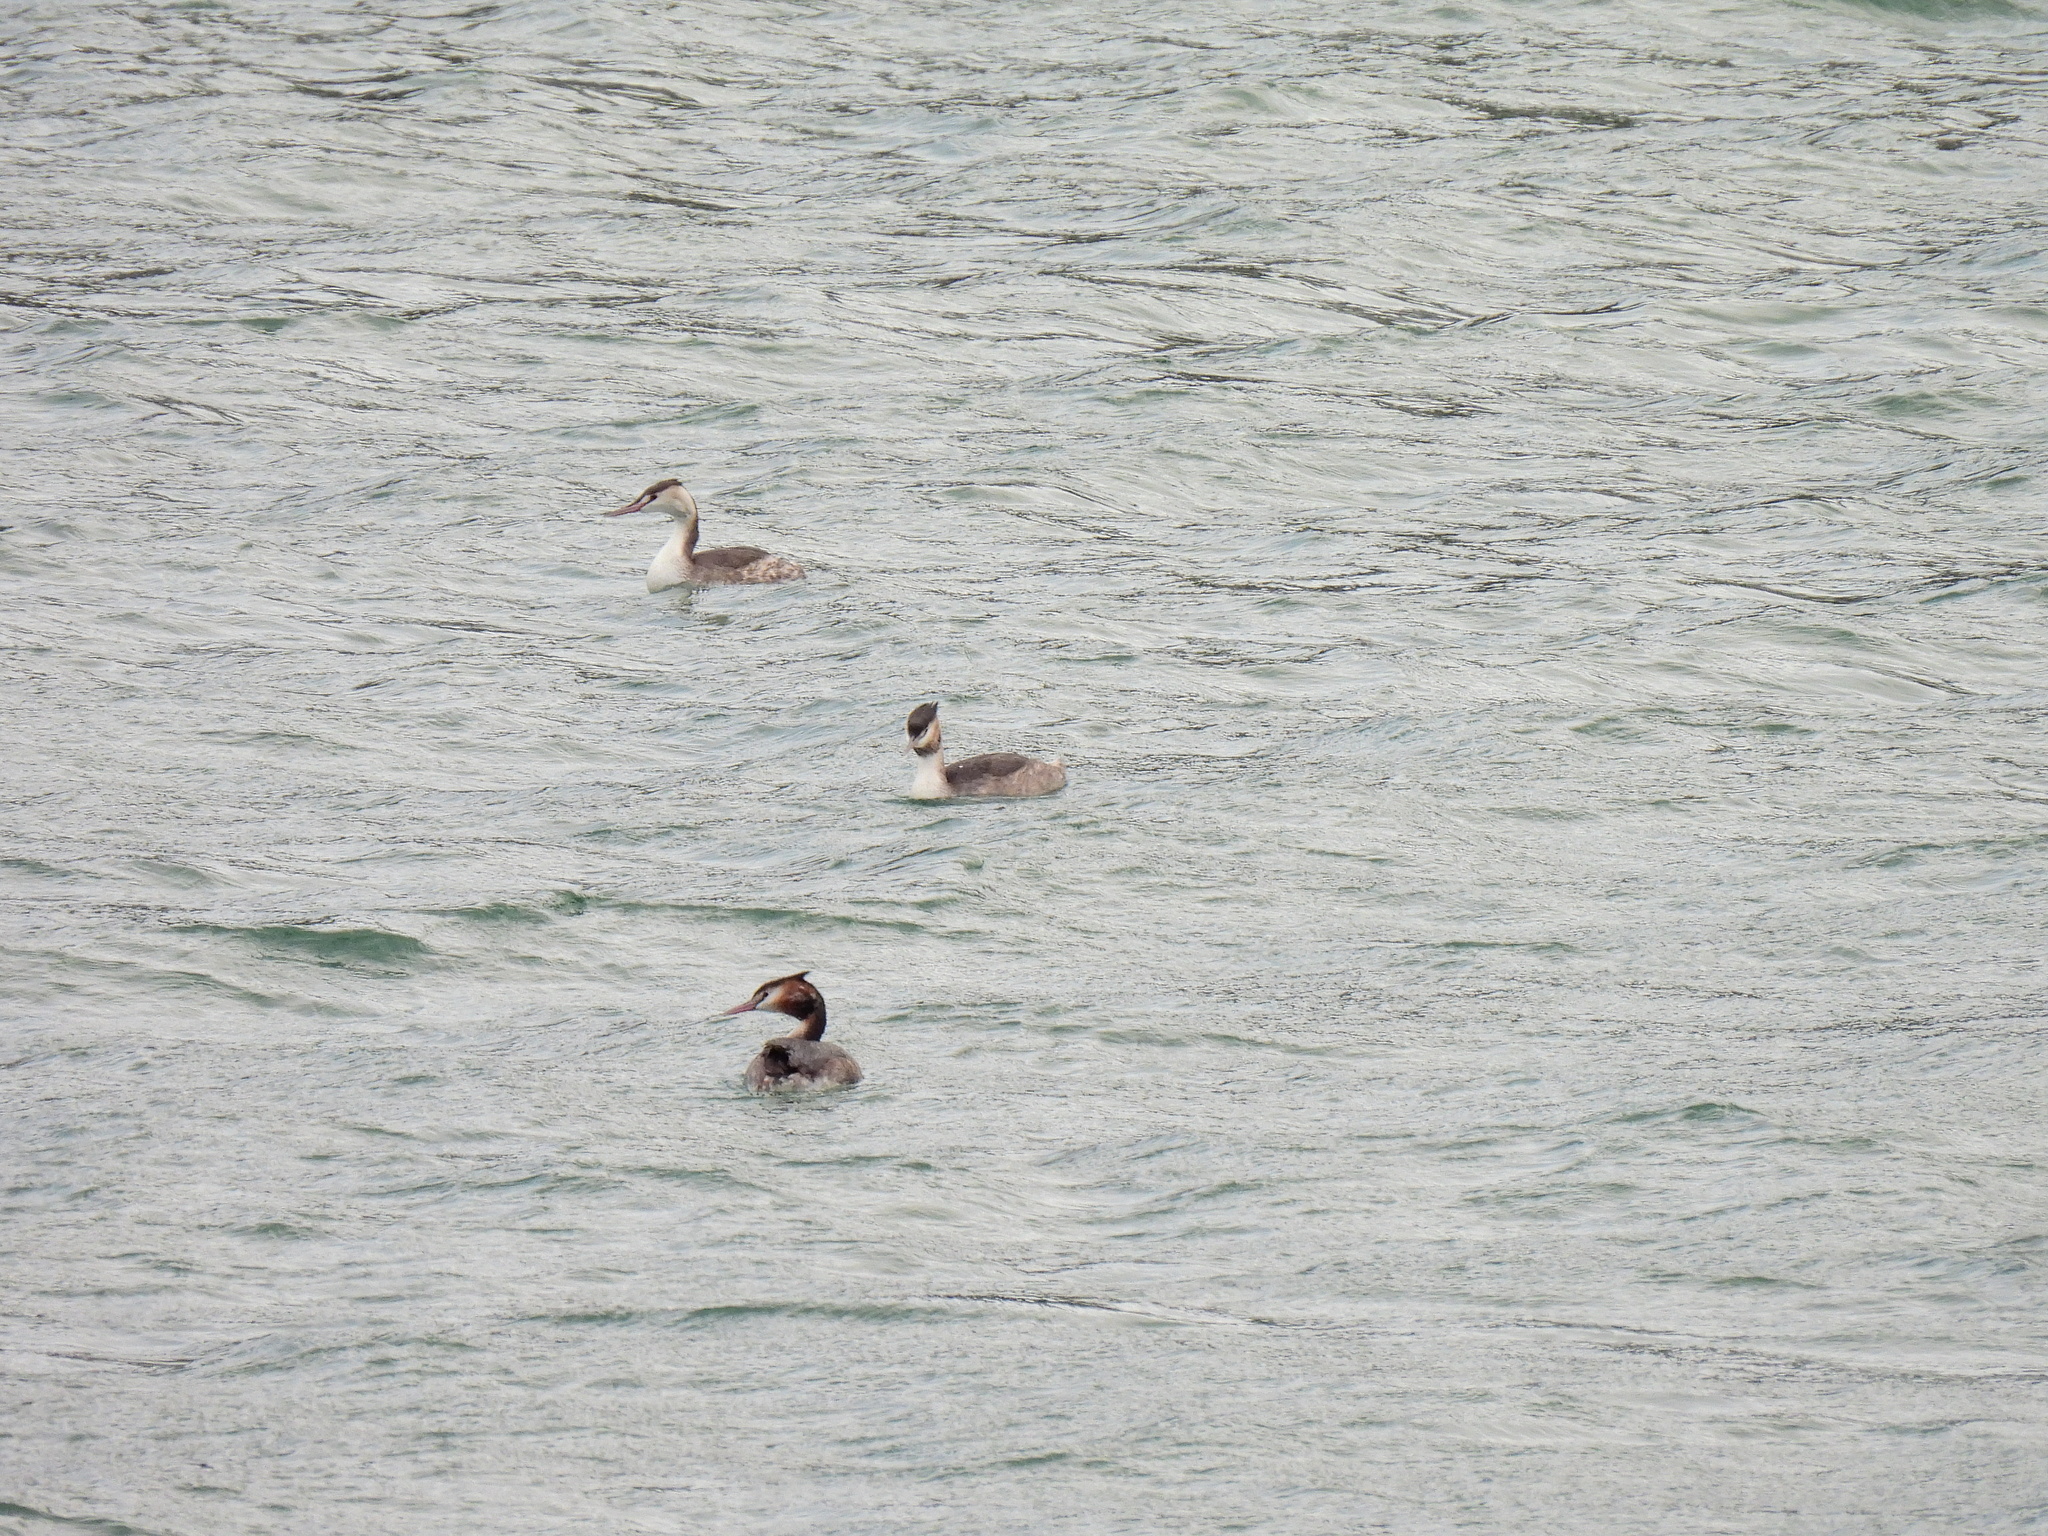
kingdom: Animalia
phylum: Chordata
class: Aves
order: Podicipediformes
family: Podicipedidae
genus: Podiceps
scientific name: Podiceps cristatus
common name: Great crested grebe
